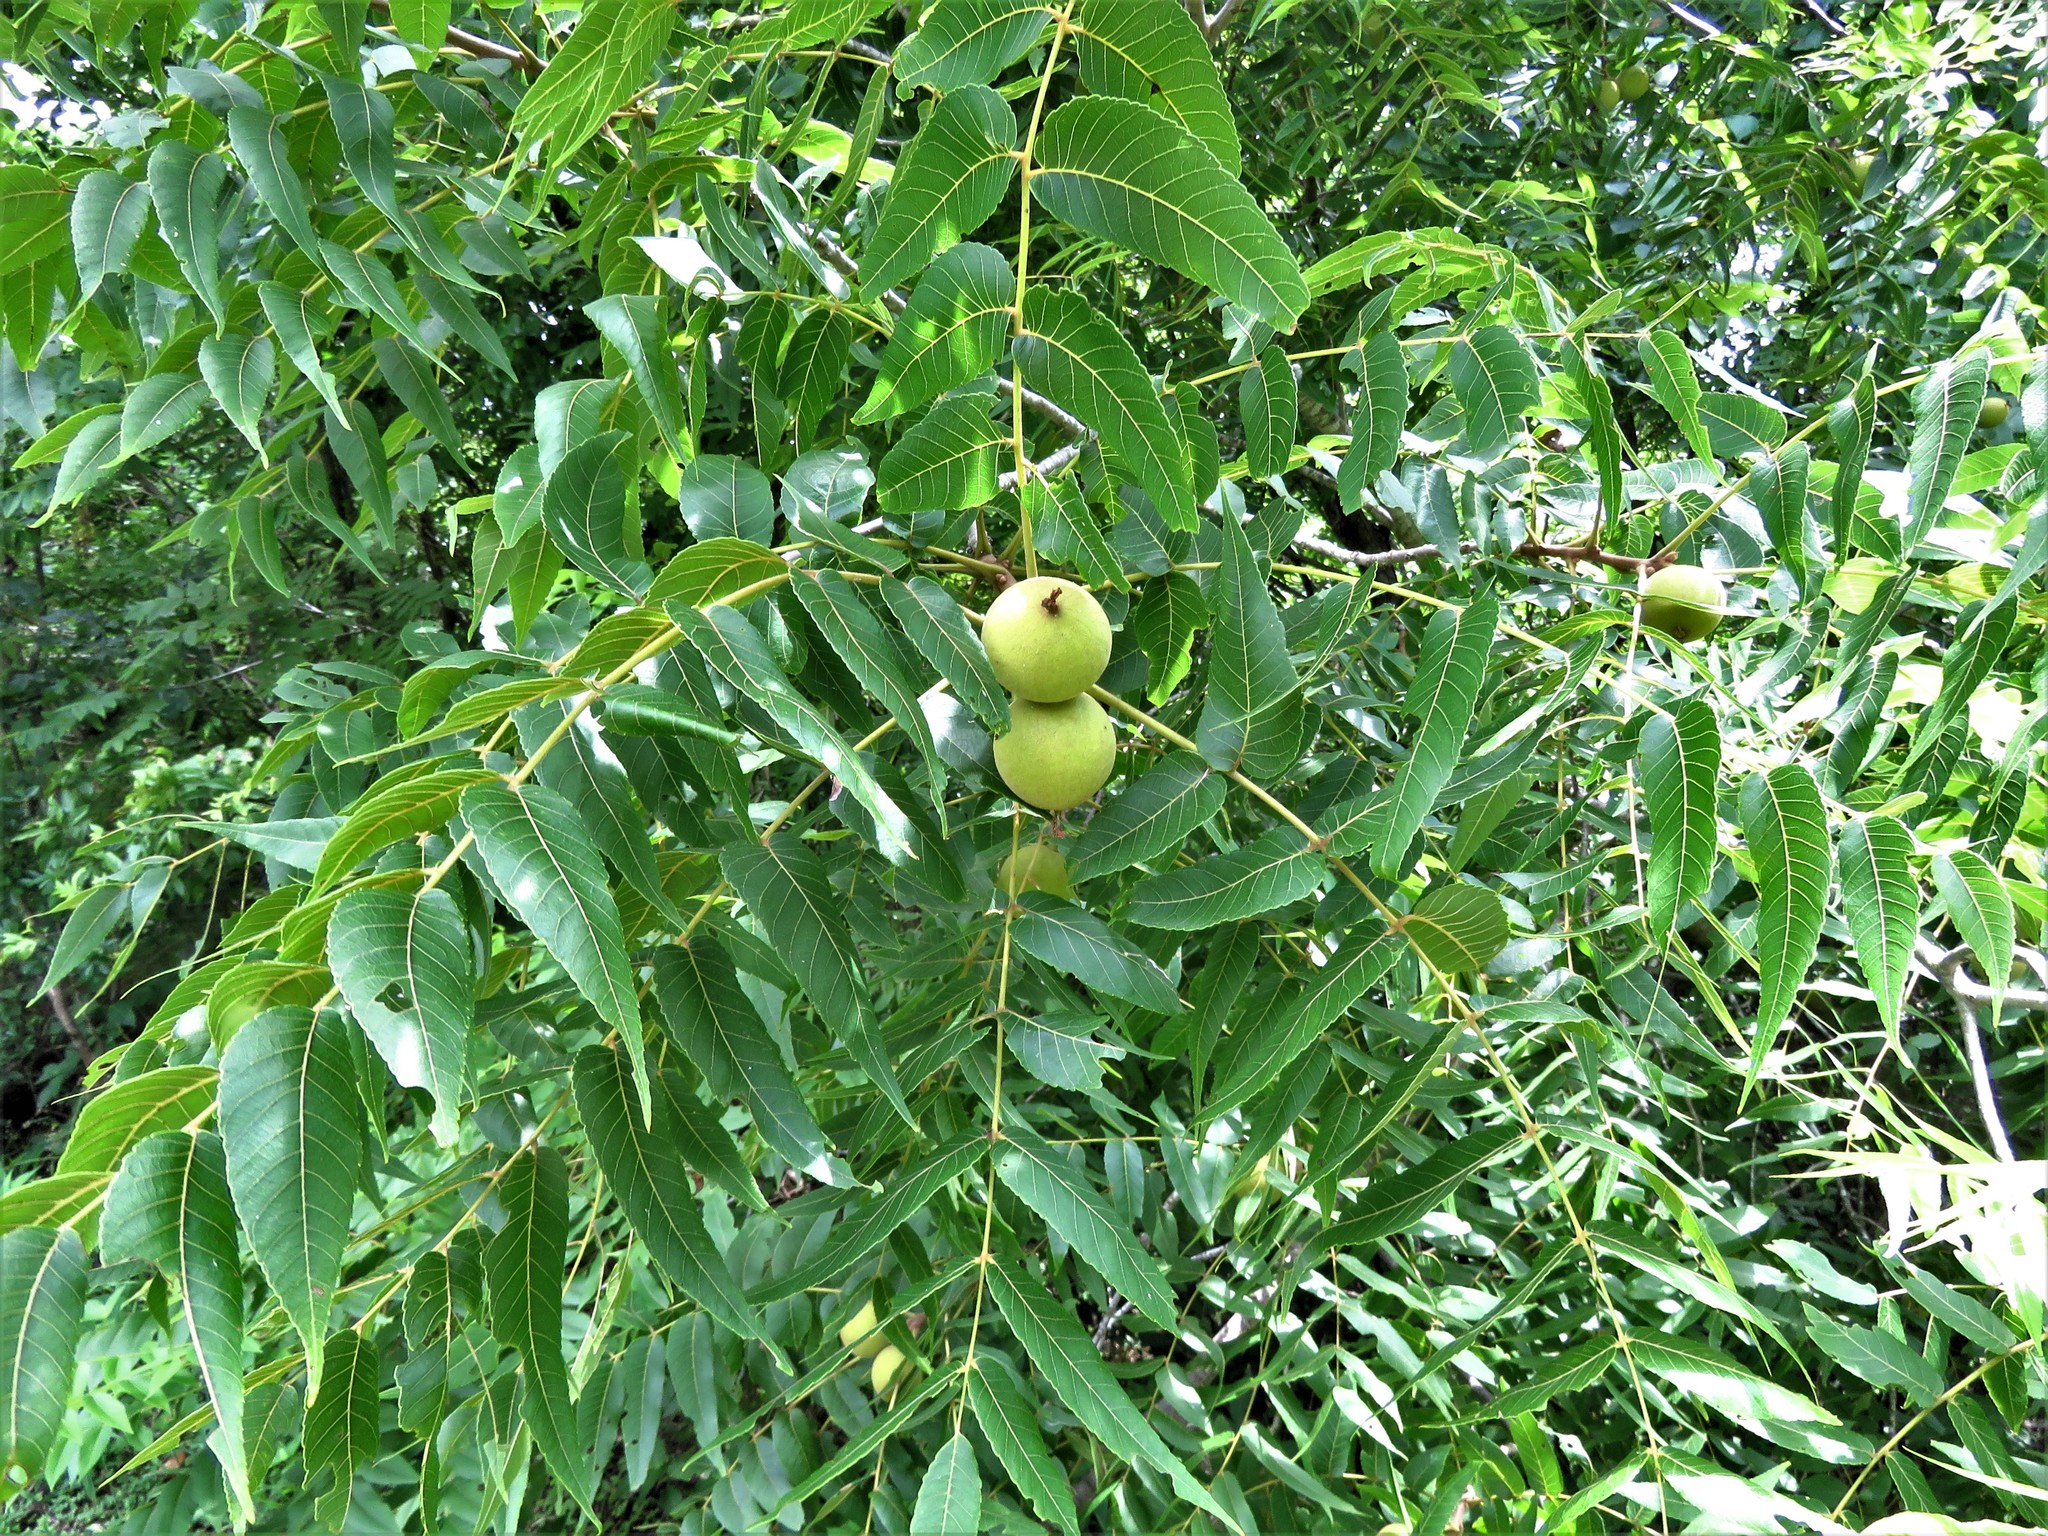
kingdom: Plantae
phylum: Tracheophyta
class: Magnoliopsida
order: Fagales
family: Juglandaceae
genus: Juglans
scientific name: Juglans nigra
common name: Black walnut
